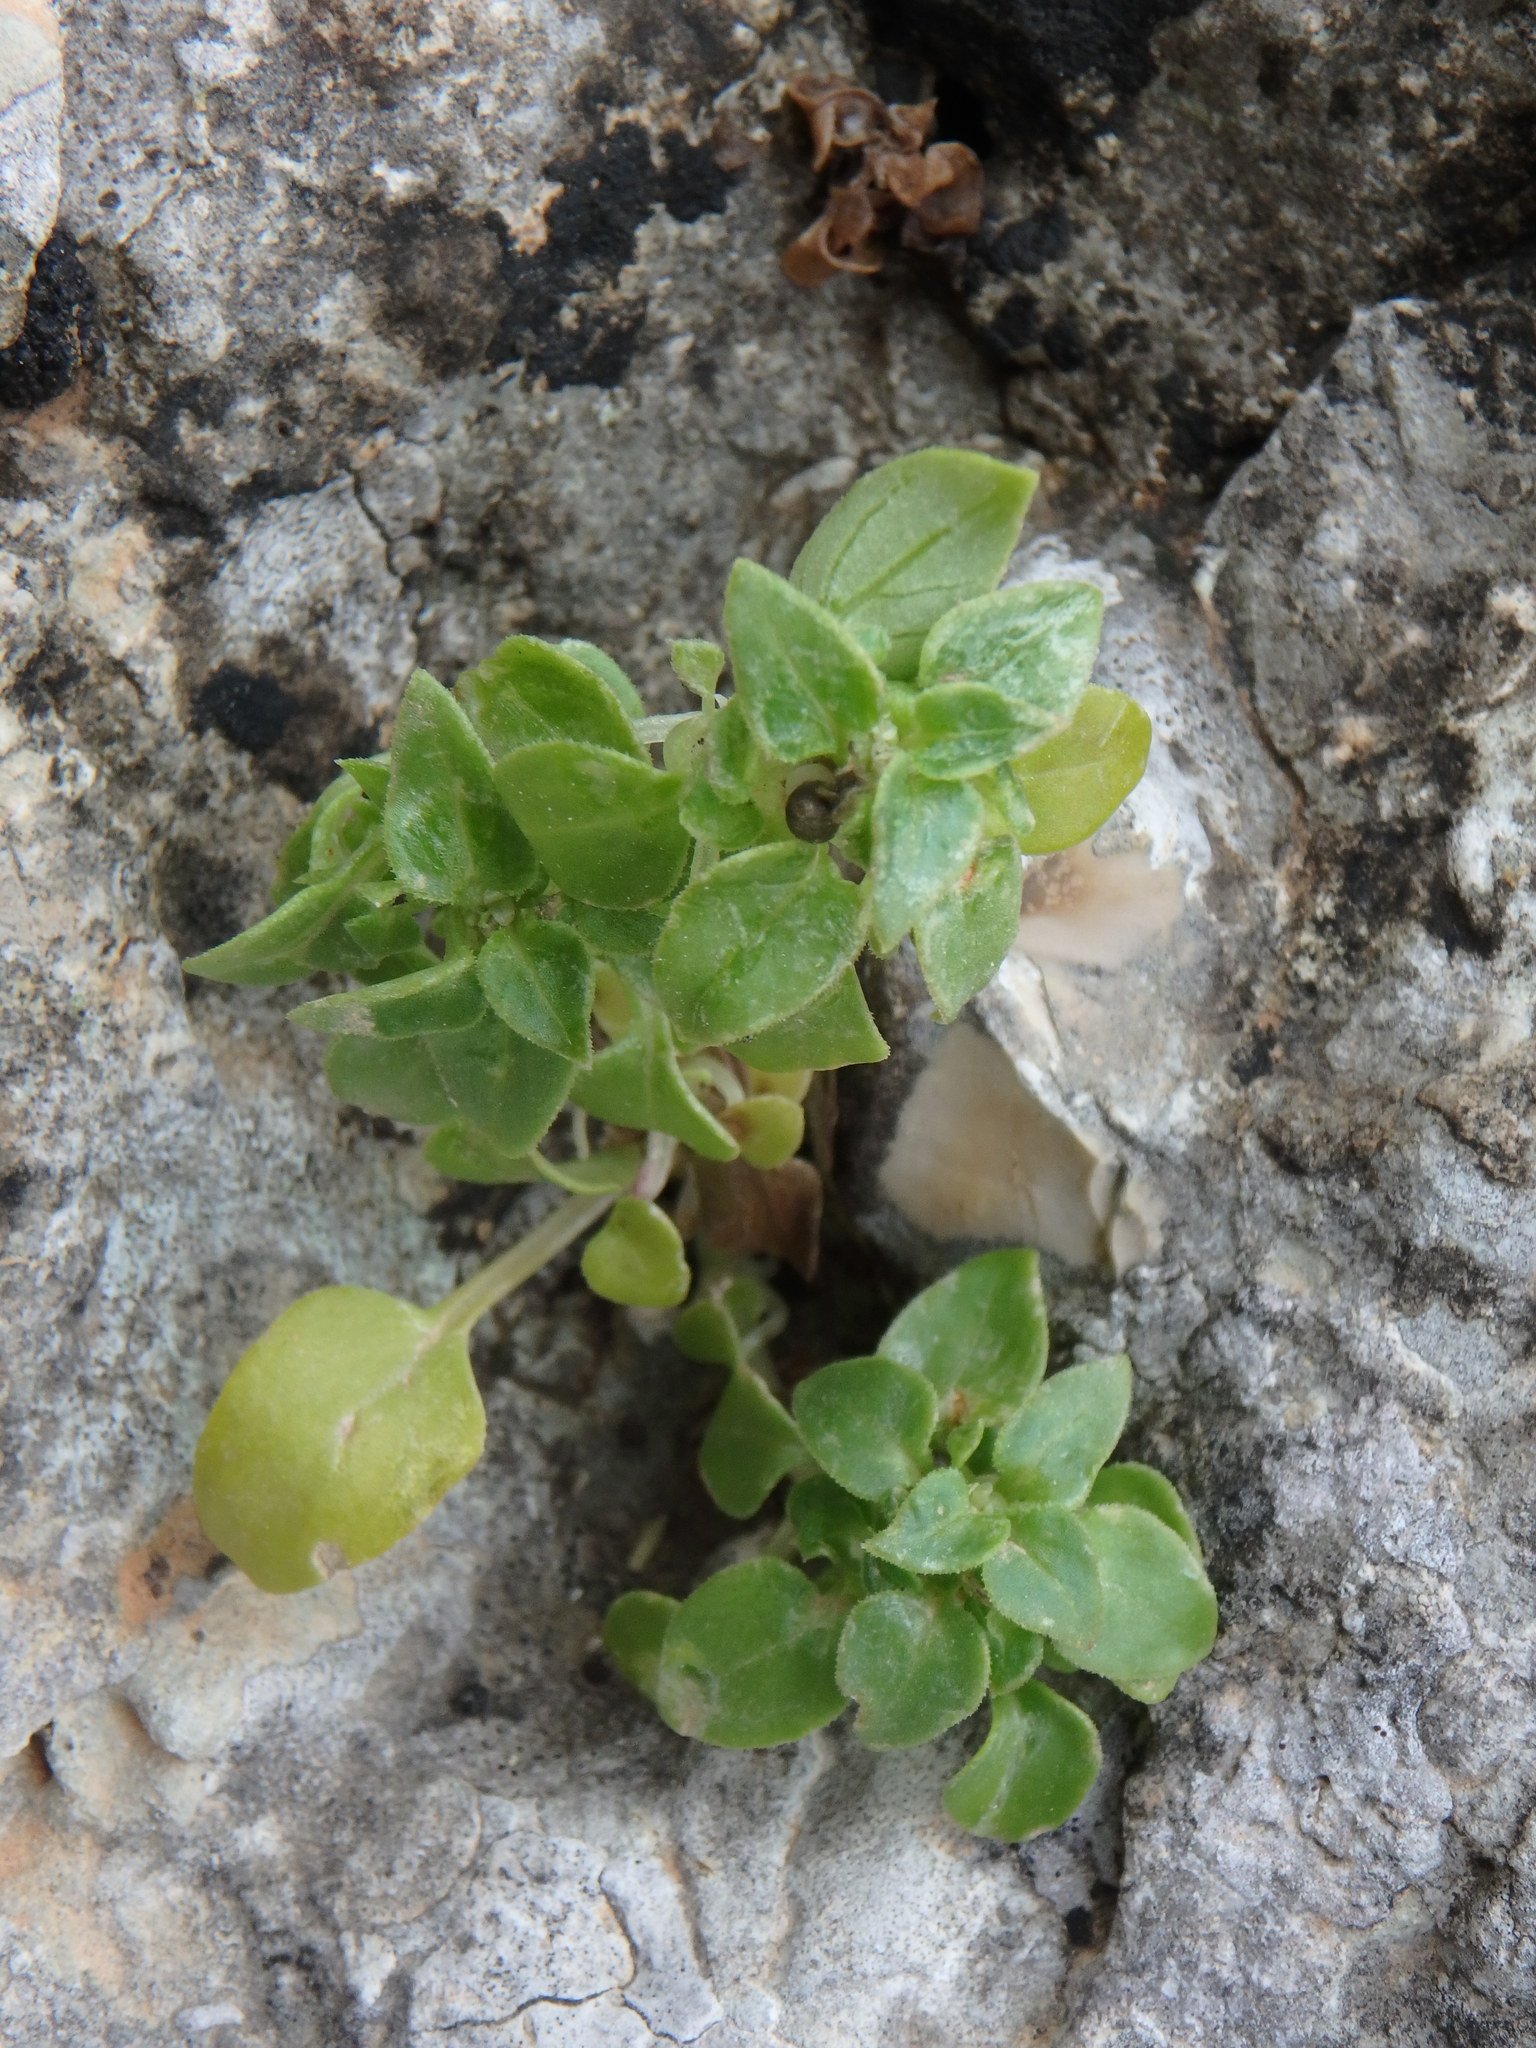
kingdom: Plantae
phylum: Tracheophyta
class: Magnoliopsida
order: Gentianales
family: Rubiaceae
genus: Theligonum
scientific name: Theligonum cynocrambe
